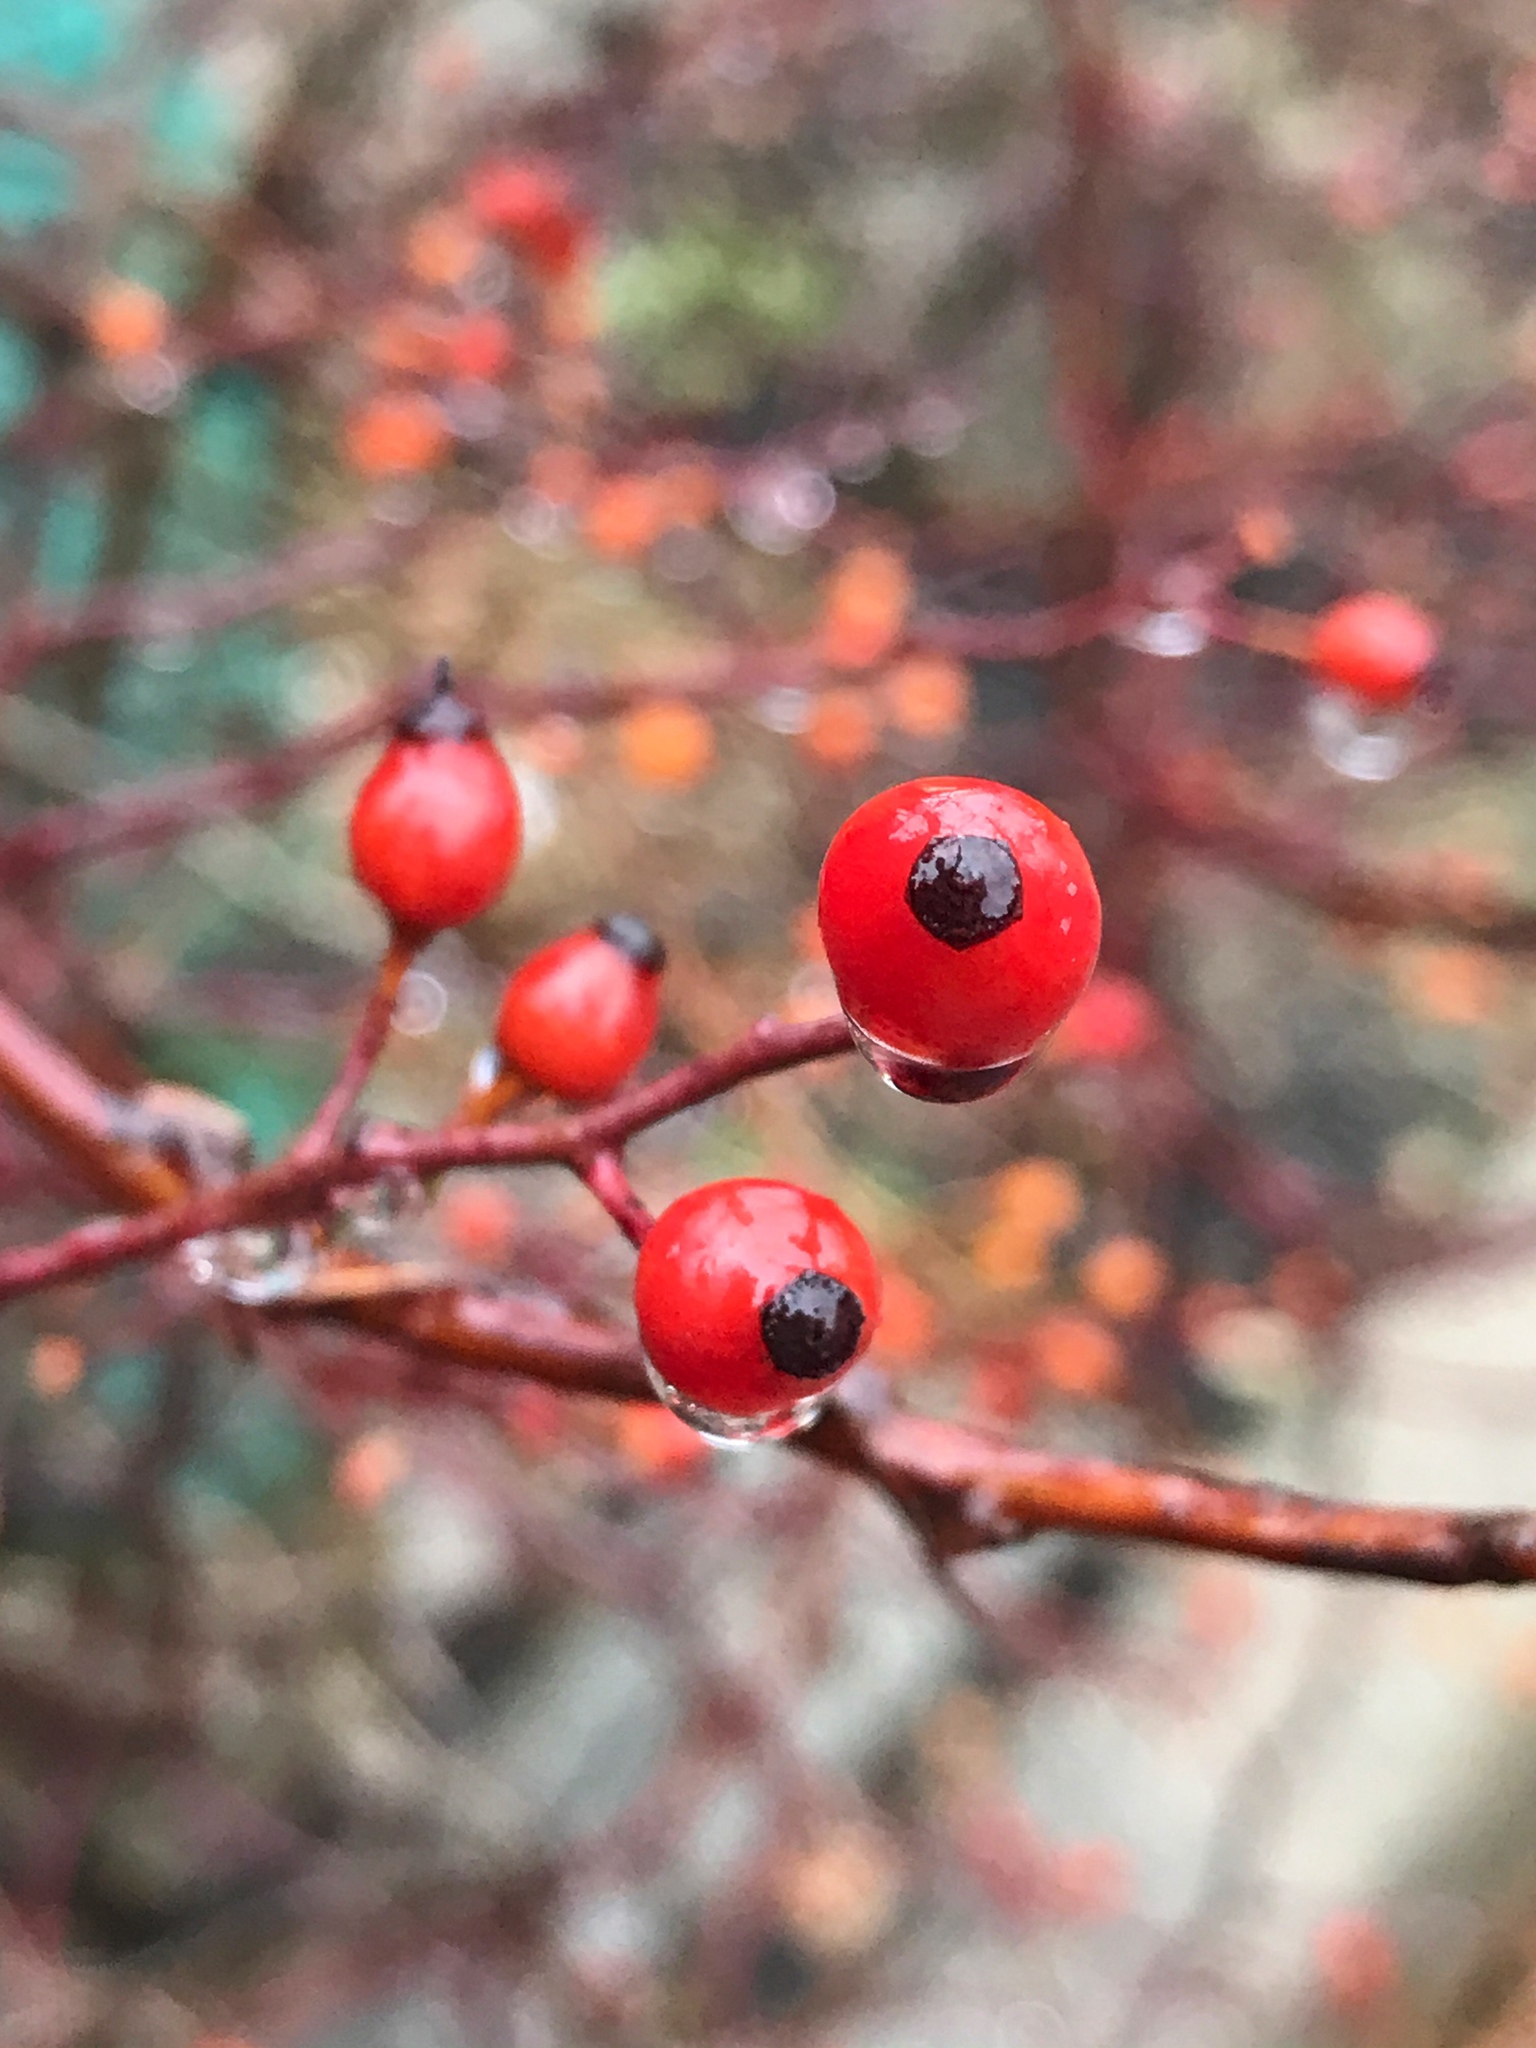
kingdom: Plantae
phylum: Tracheophyta
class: Magnoliopsida
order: Rosales
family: Rosaceae
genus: Rosa
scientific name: Rosa multiflora
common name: Multiflora rose
